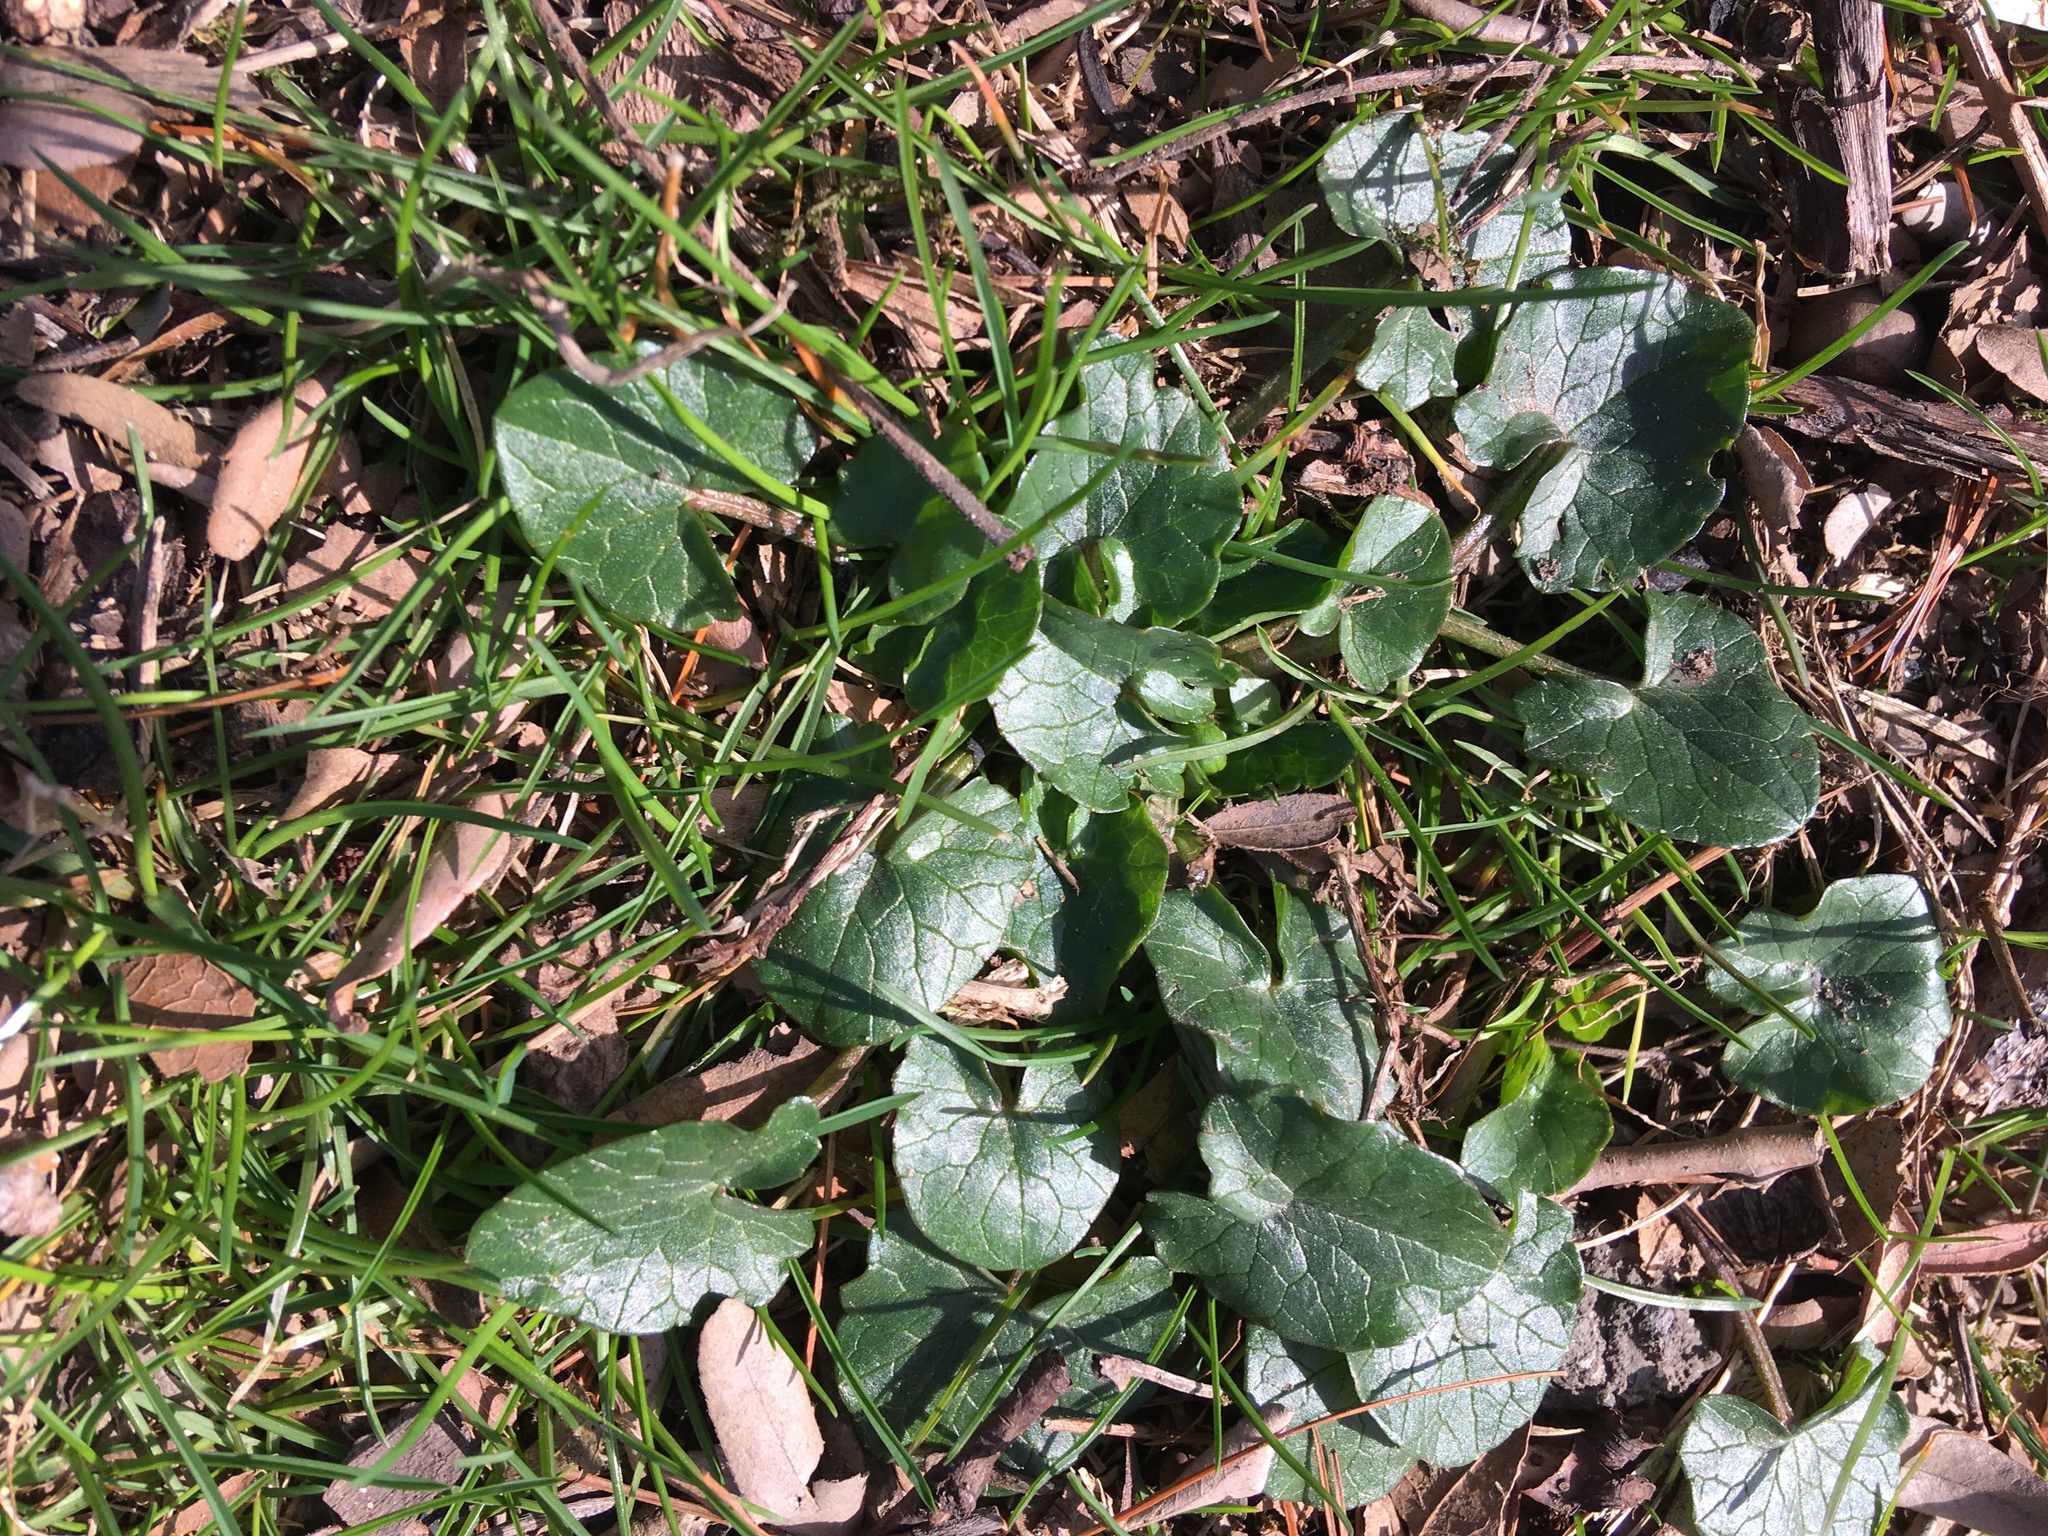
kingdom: Plantae
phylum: Tracheophyta
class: Magnoliopsida
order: Ranunculales
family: Ranunculaceae
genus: Ficaria
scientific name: Ficaria verna
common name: Lesser celandine
